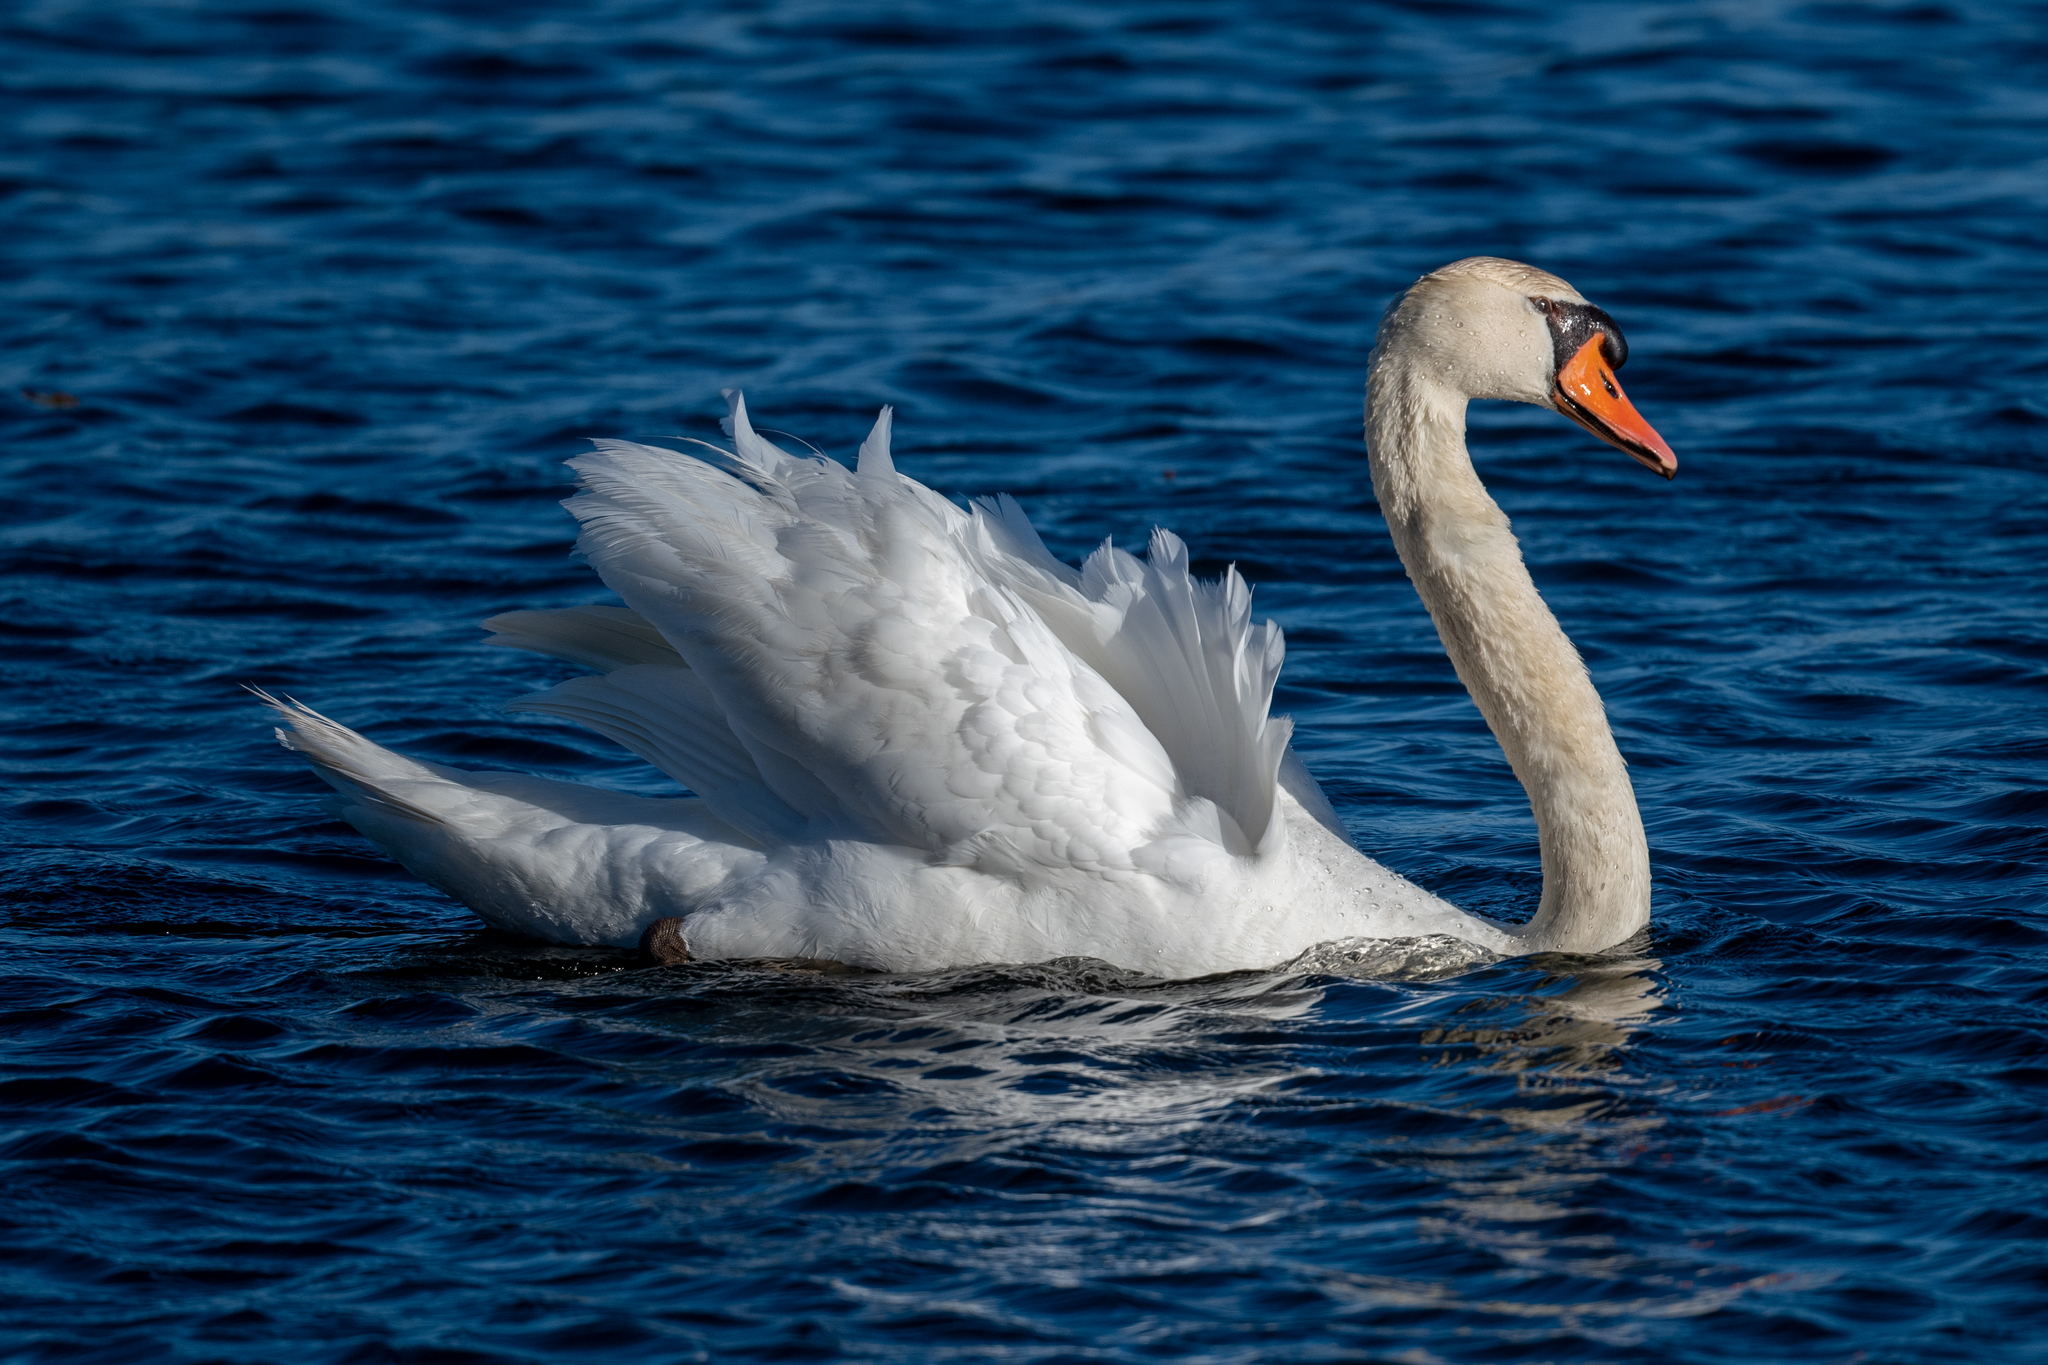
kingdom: Animalia
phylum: Chordata
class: Aves
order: Anseriformes
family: Anatidae
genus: Cygnus
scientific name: Cygnus olor
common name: Mute swan
